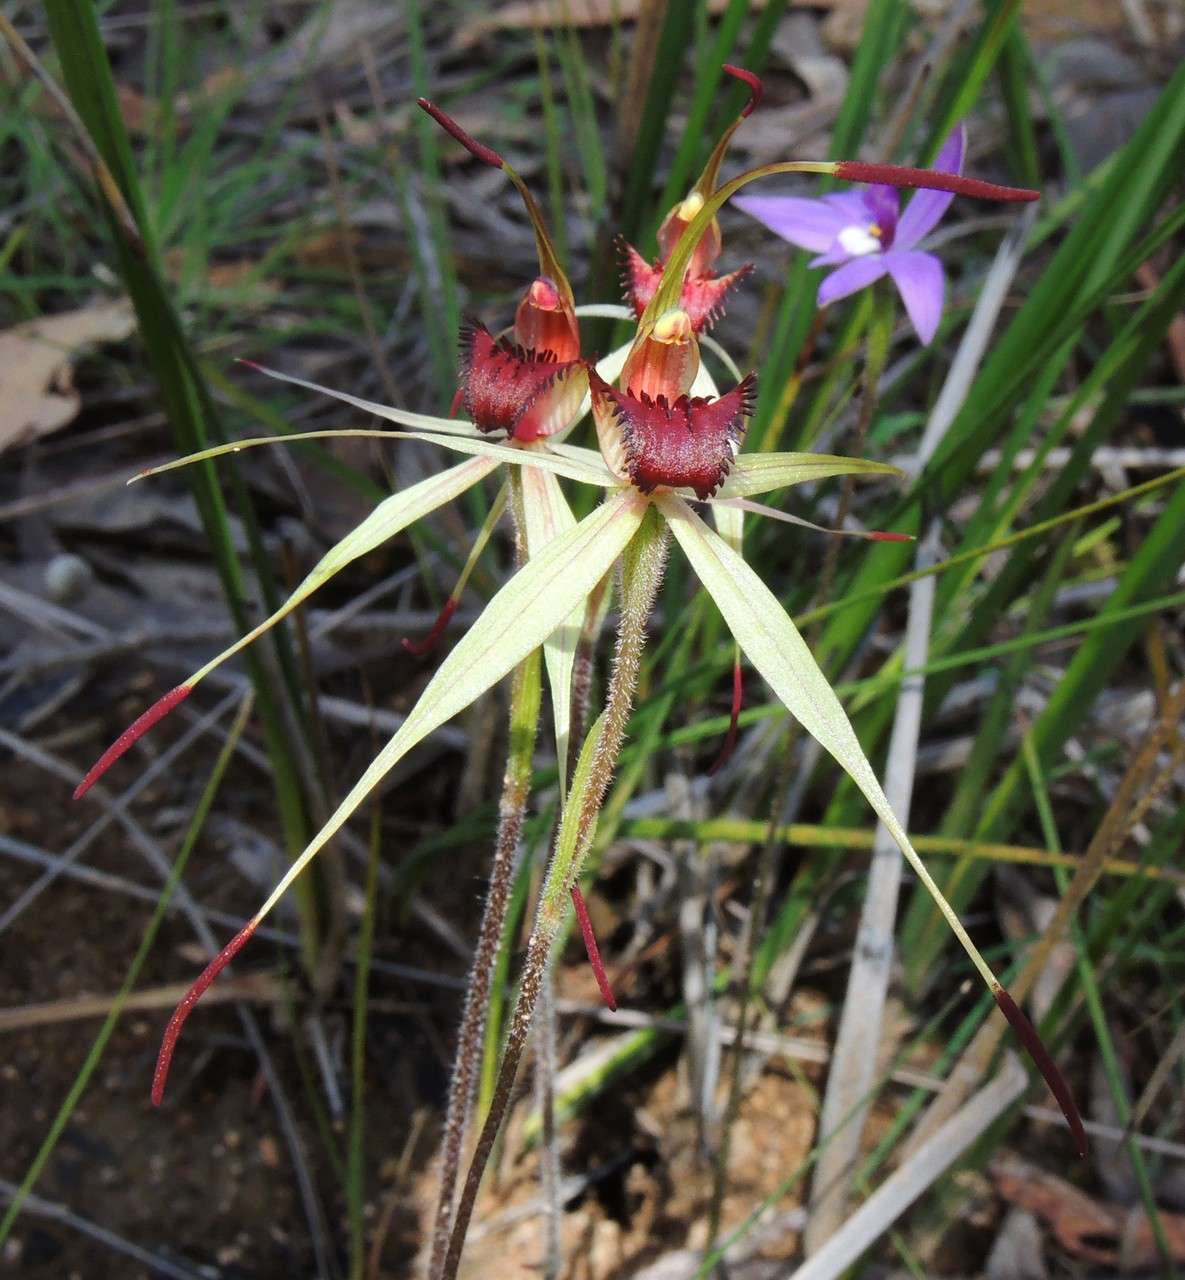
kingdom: Plantae
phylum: Tracheophyta
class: Liliopsida
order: Asparagales
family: Orchidaceae
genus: Caladenia
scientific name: Caladenia major
